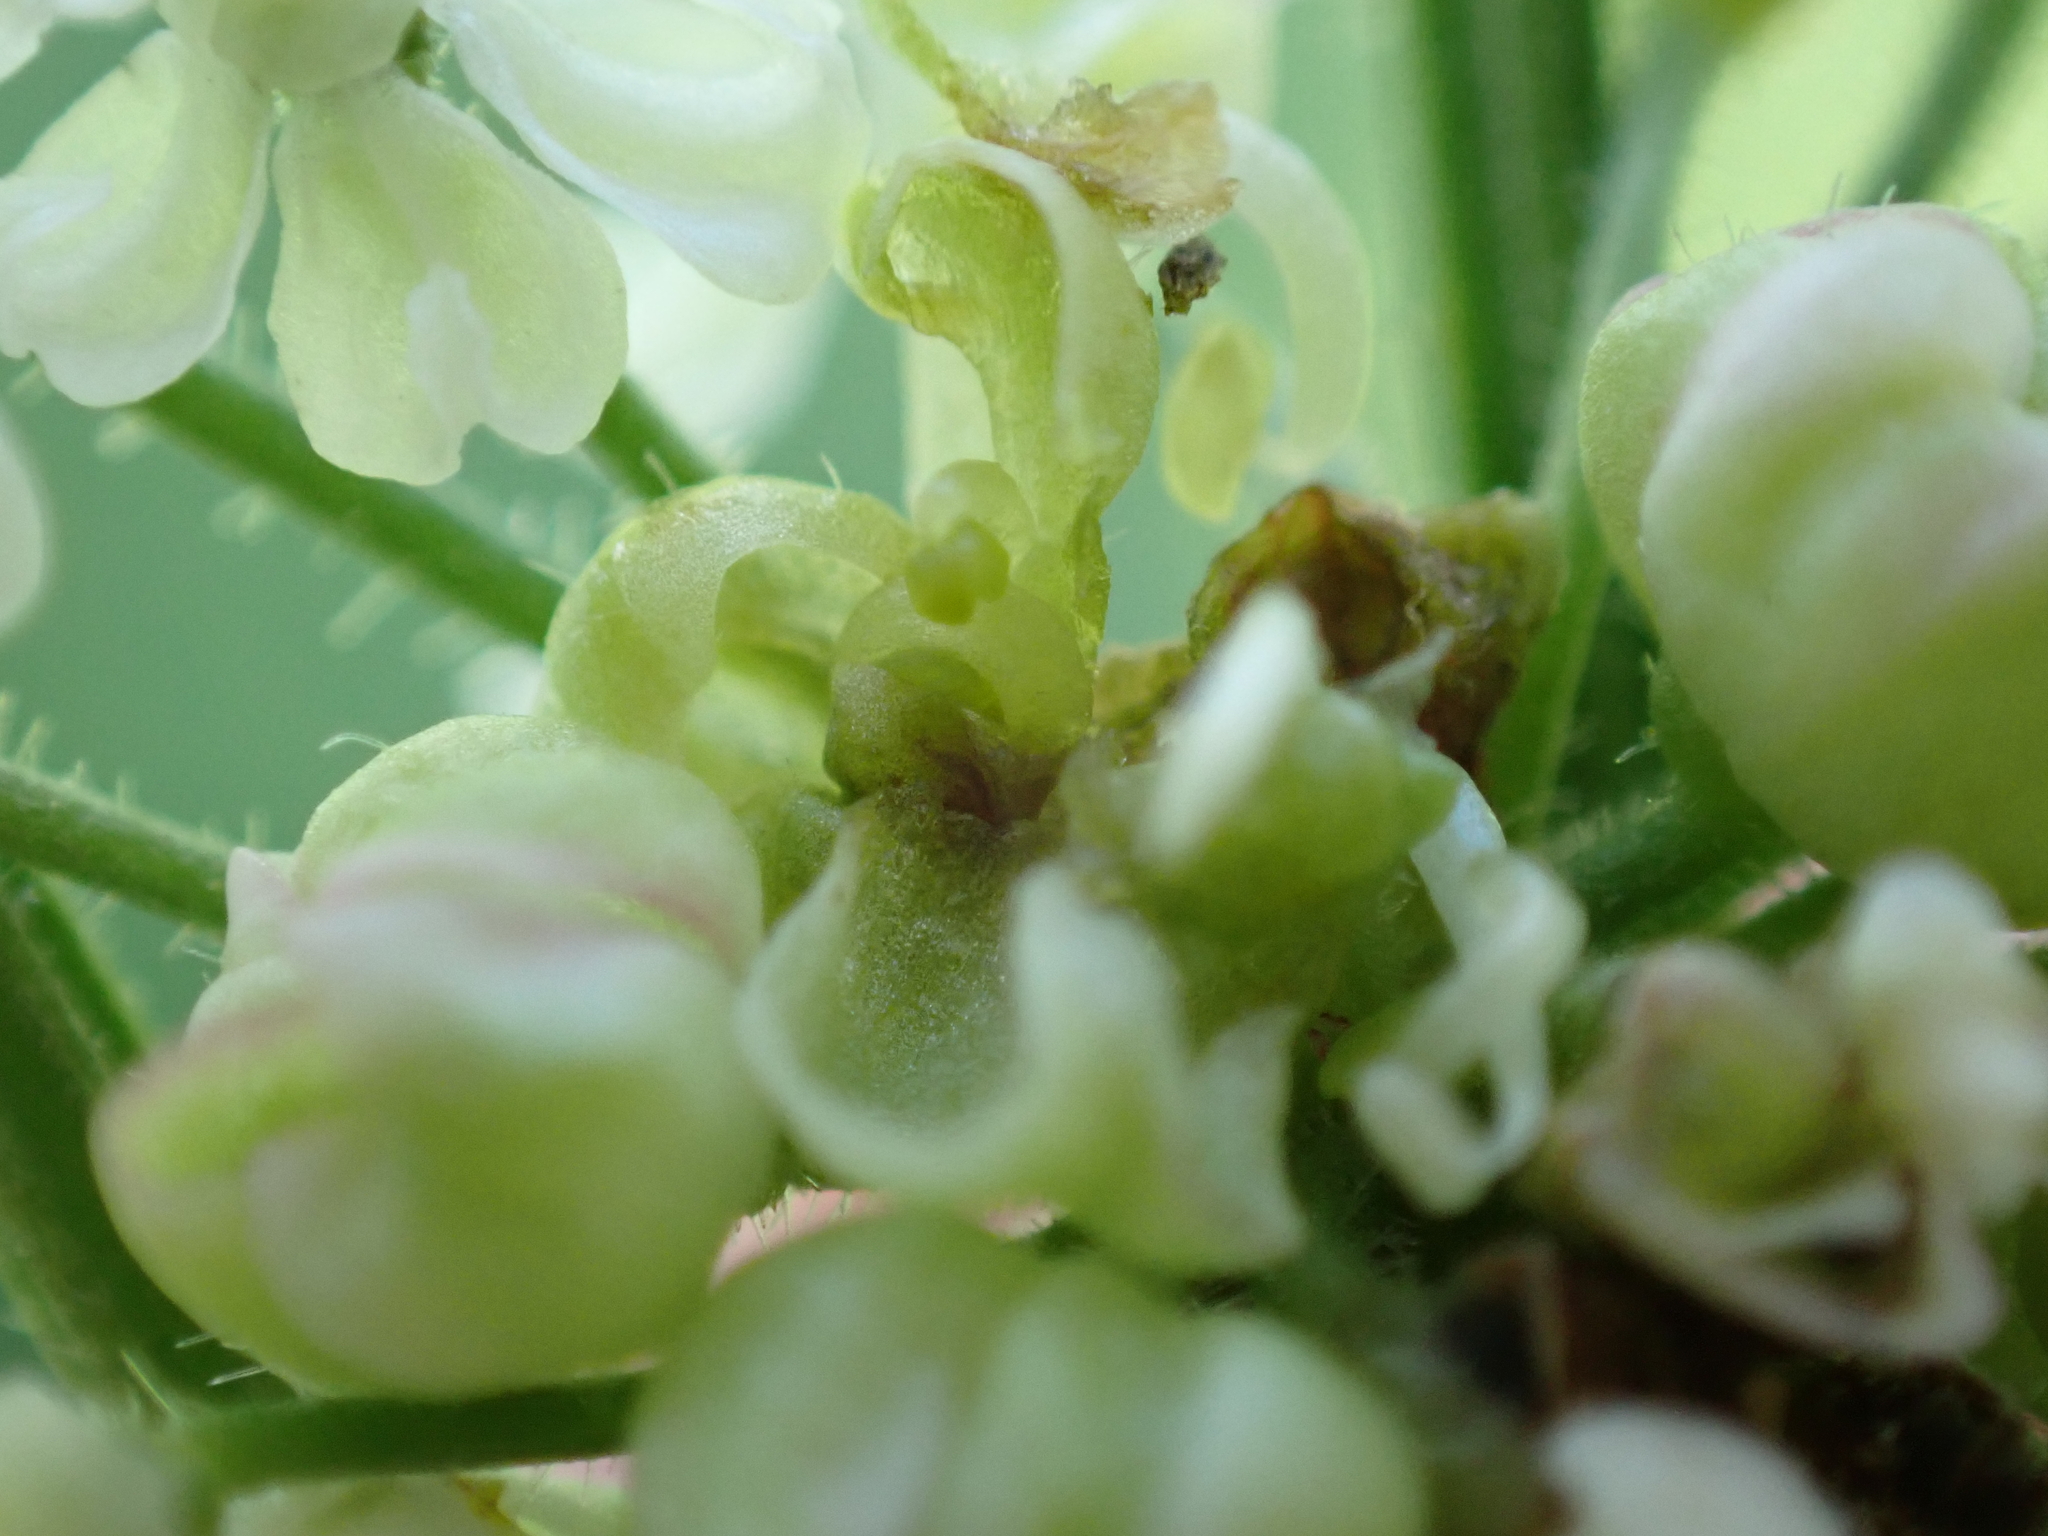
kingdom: Animalia
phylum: Arthropoda
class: Insecta
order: Diptera
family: Cecidomyiidae
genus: Contarinia
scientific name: Contarinia nicolayi
